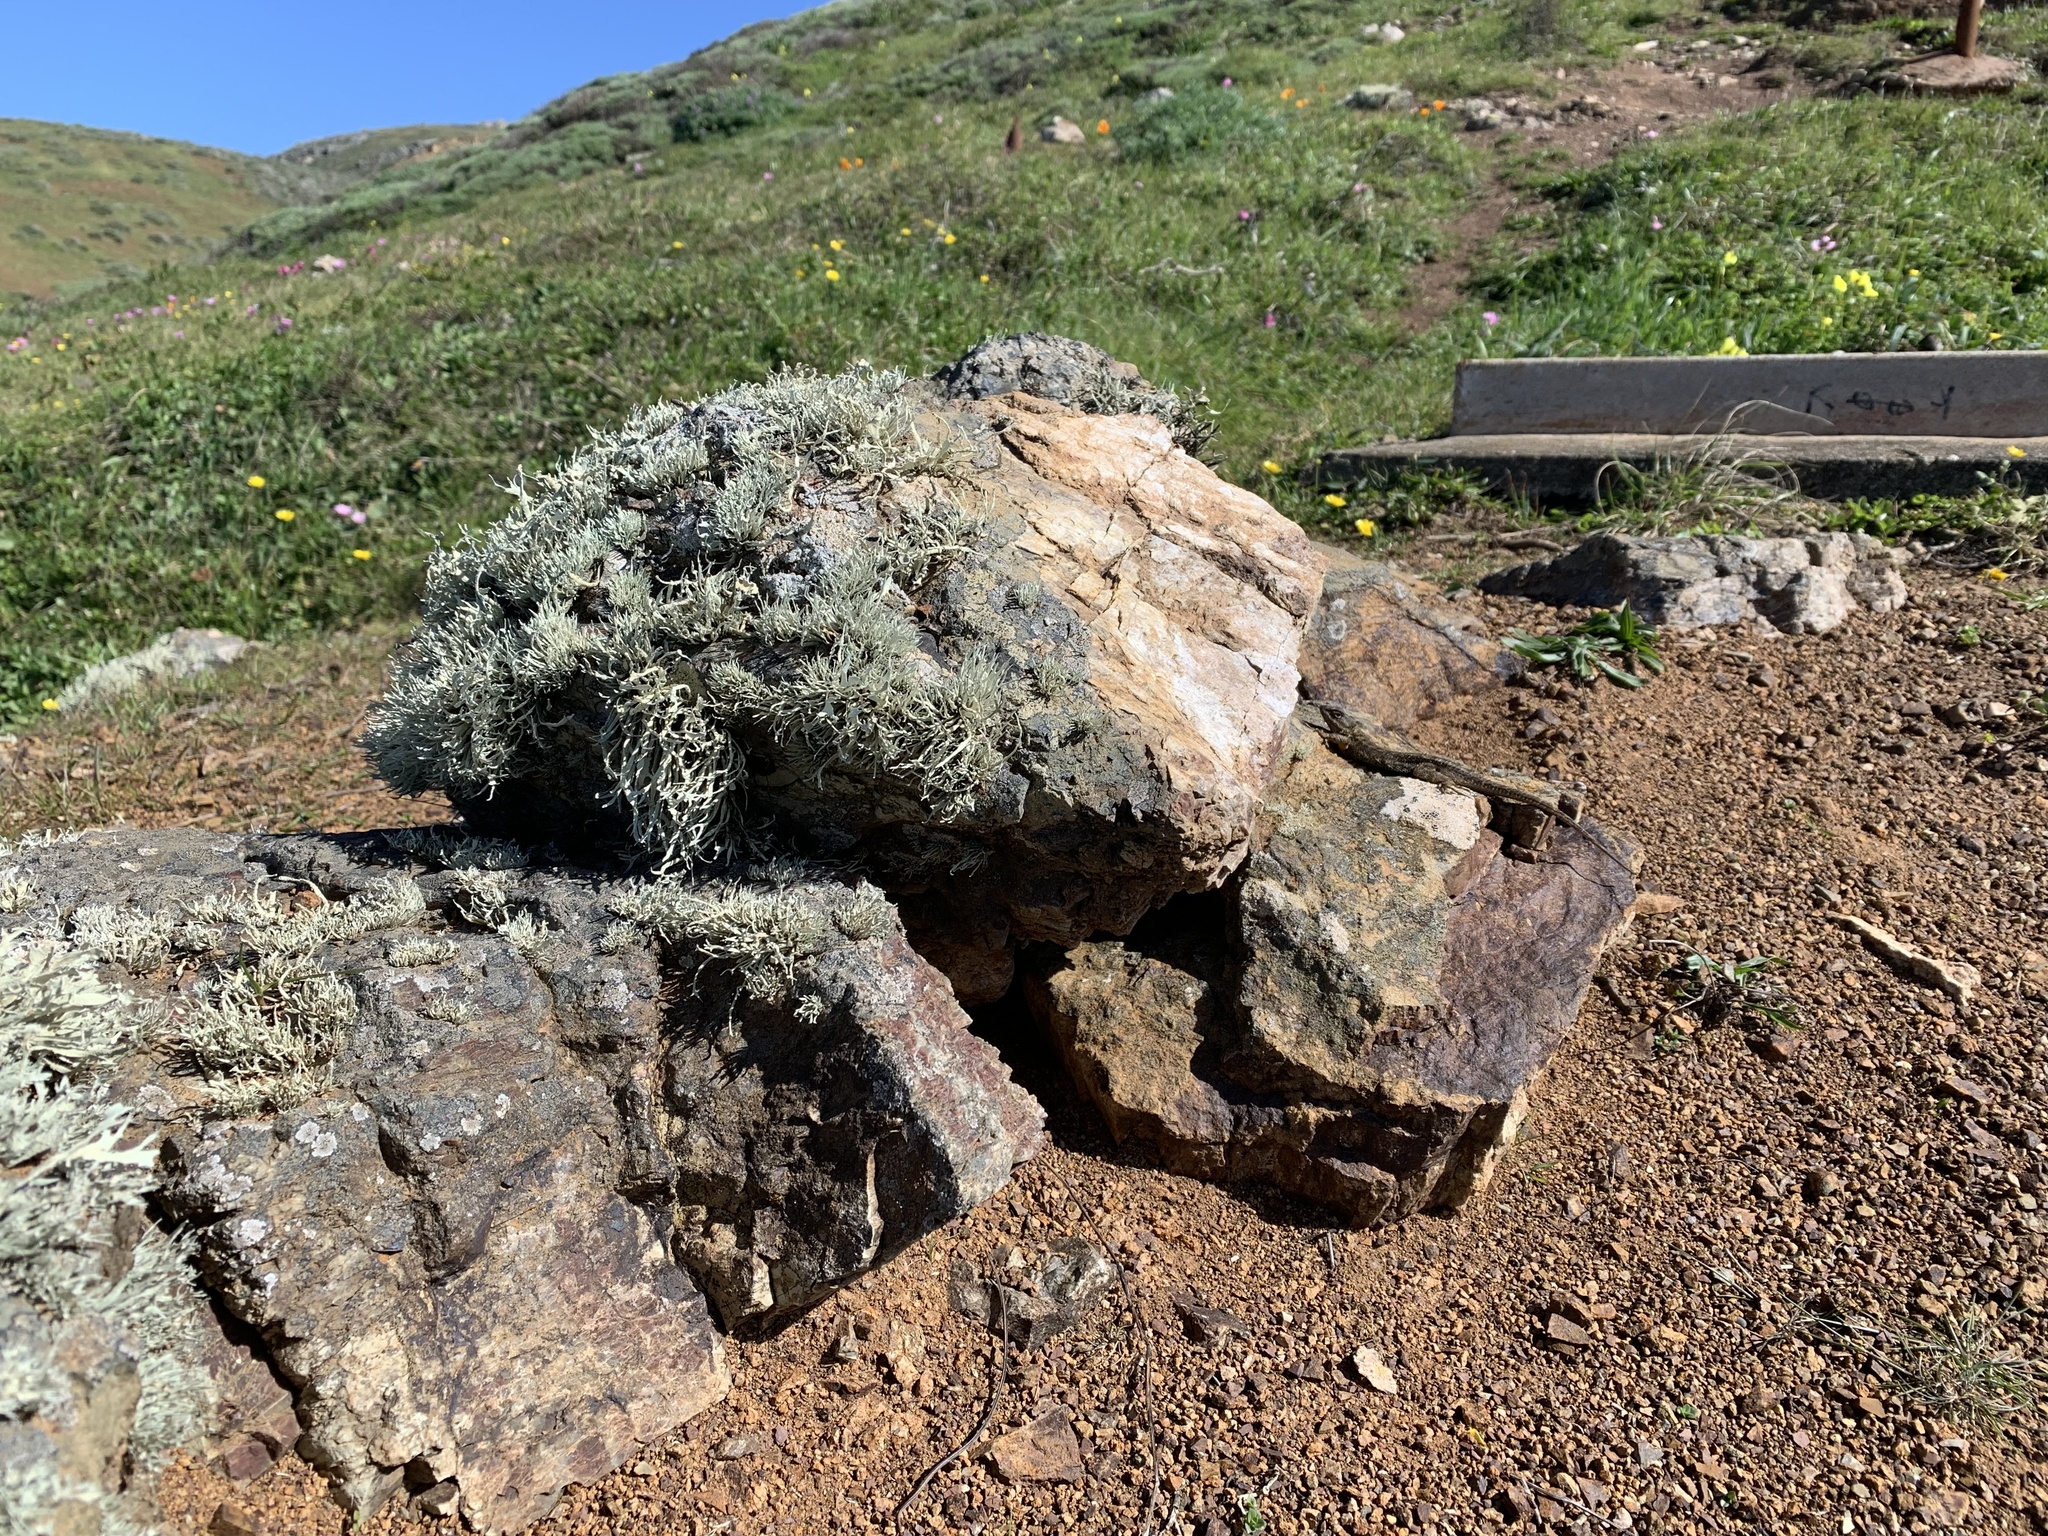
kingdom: Fungi
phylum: Ascomycota
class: Lecanoromycetes
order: Lecanorales
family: Ramalinaceae
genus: Niebla
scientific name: Niebla homalea
